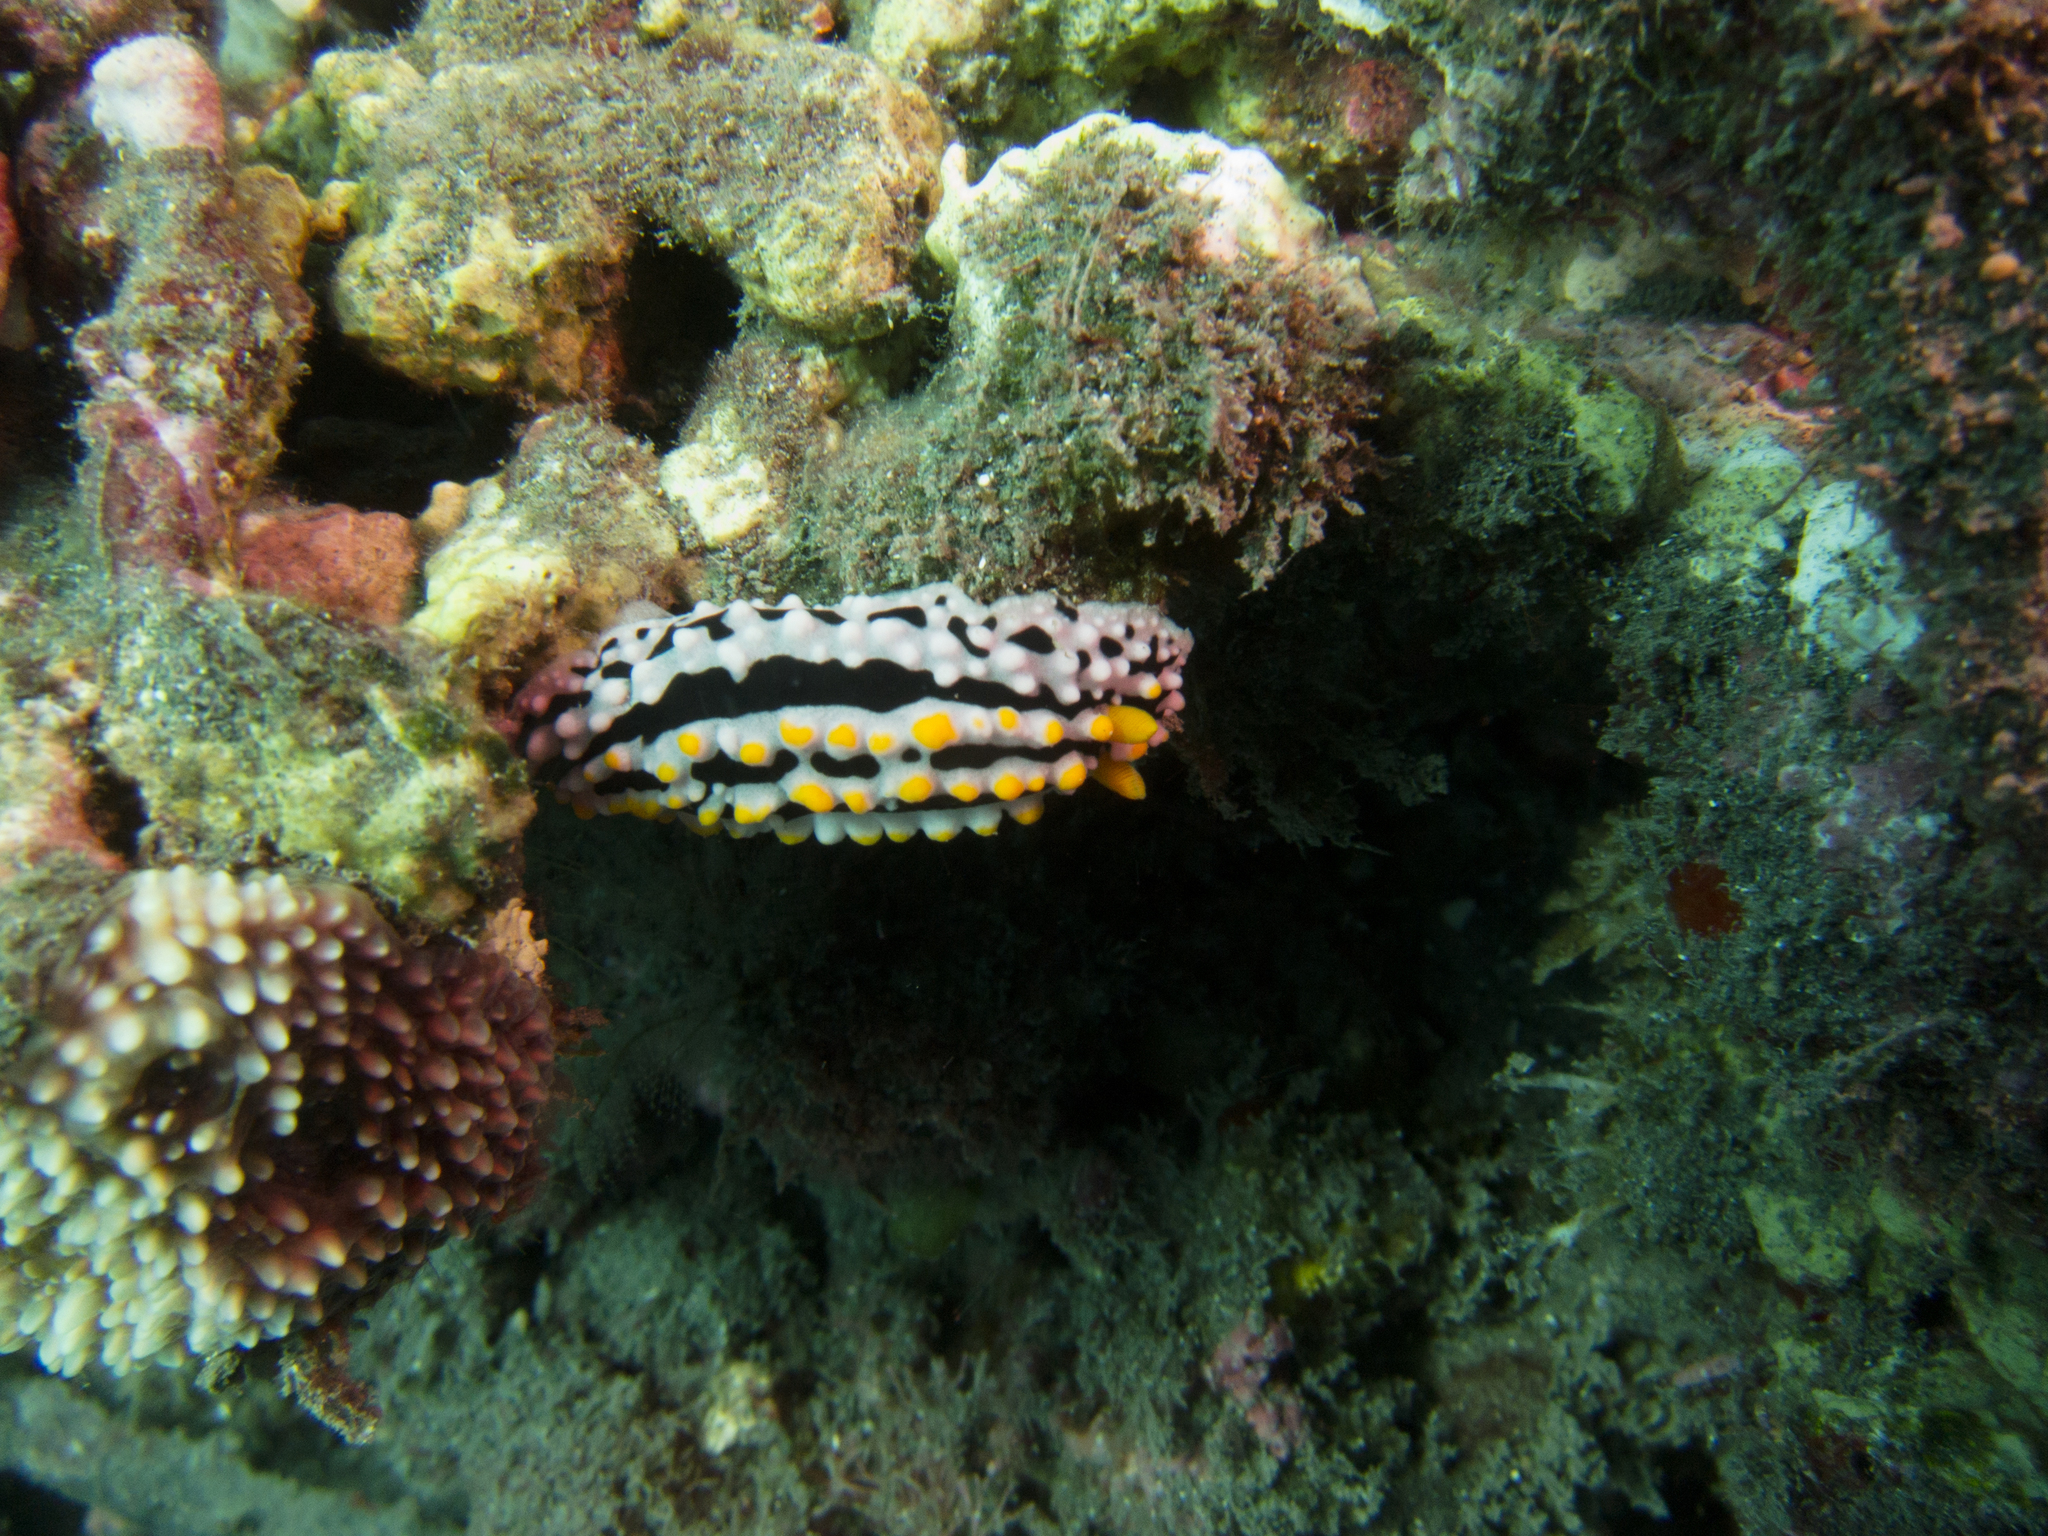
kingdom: Animalia
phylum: Mollusca
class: Gastropoda
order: Nudibranchia
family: Phyllidiidae
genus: Phyllidia
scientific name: Phyllidia varicosa
